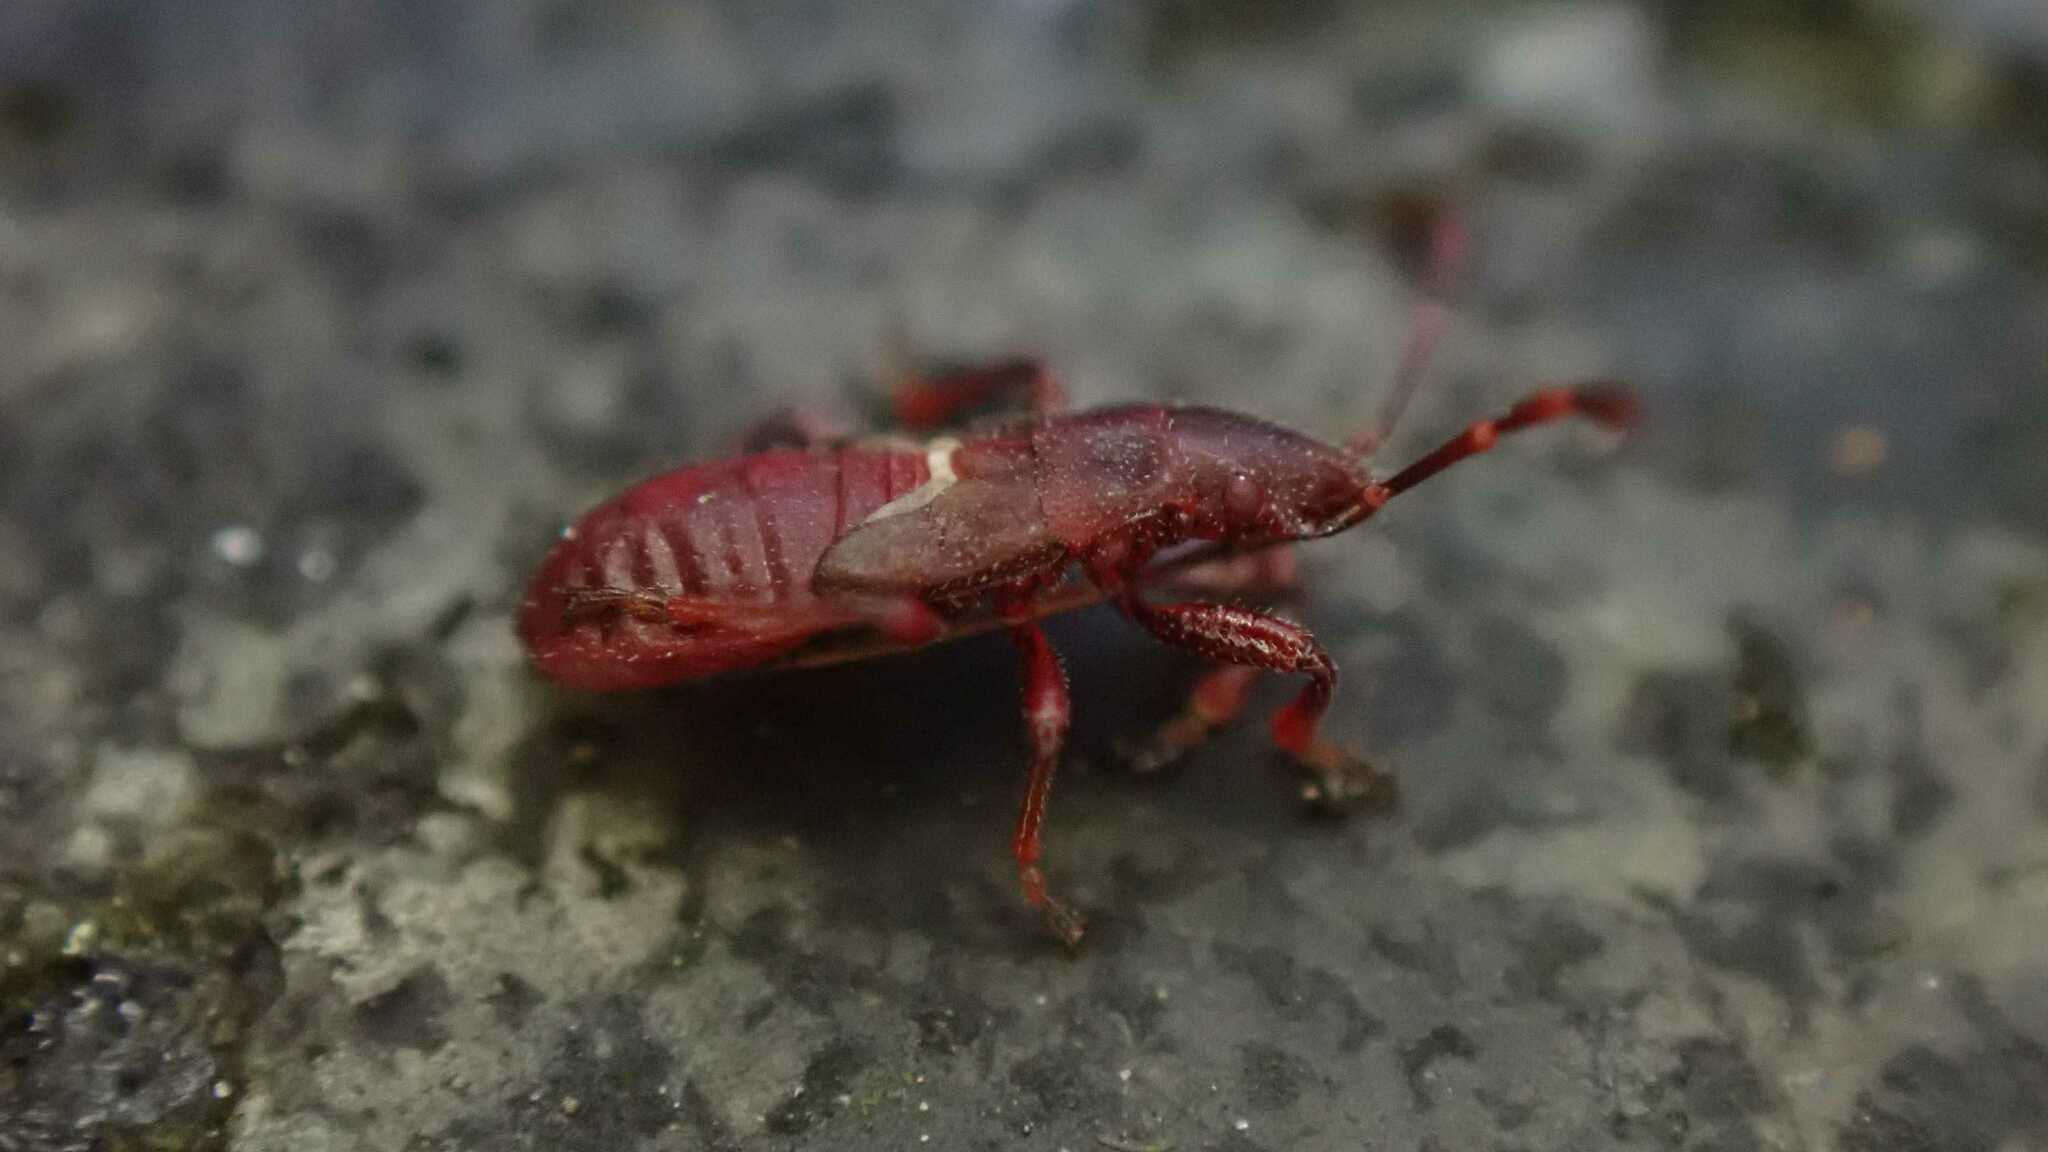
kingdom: Animalia
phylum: Arthropoda
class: Insecta
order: Hemiptera
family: Oxycarenidae
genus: Oxycarenus
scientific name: Oxycarenus lavaterae
